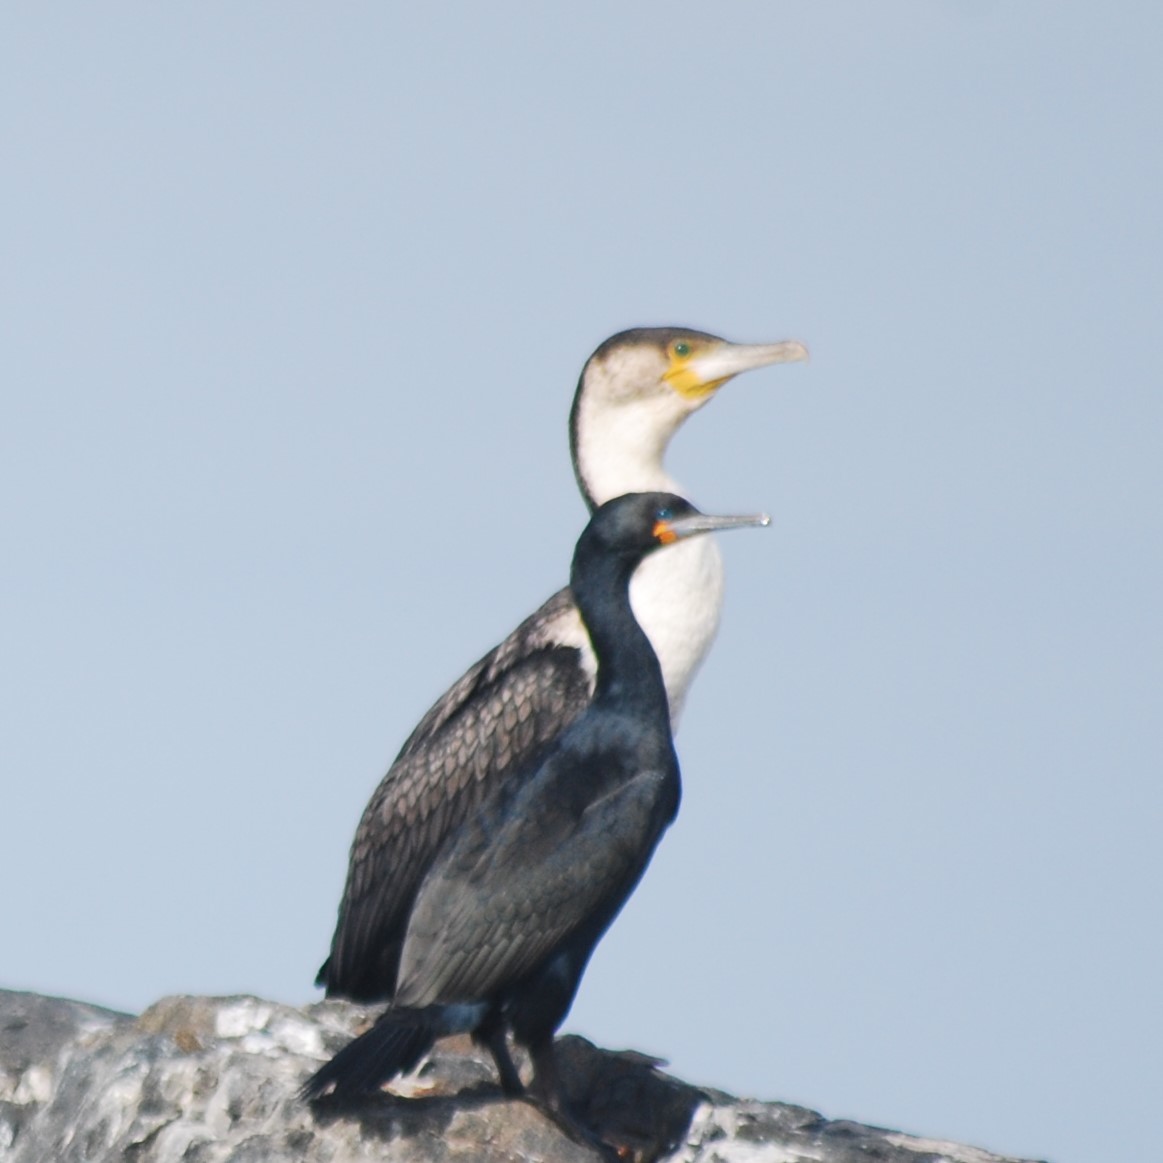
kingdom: Animalia
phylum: Chordata
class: Aves
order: Suliformes
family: Phalacrocoracidae
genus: Phalacrocorax
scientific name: Phalacrocorax carbo
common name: Great cormorant
